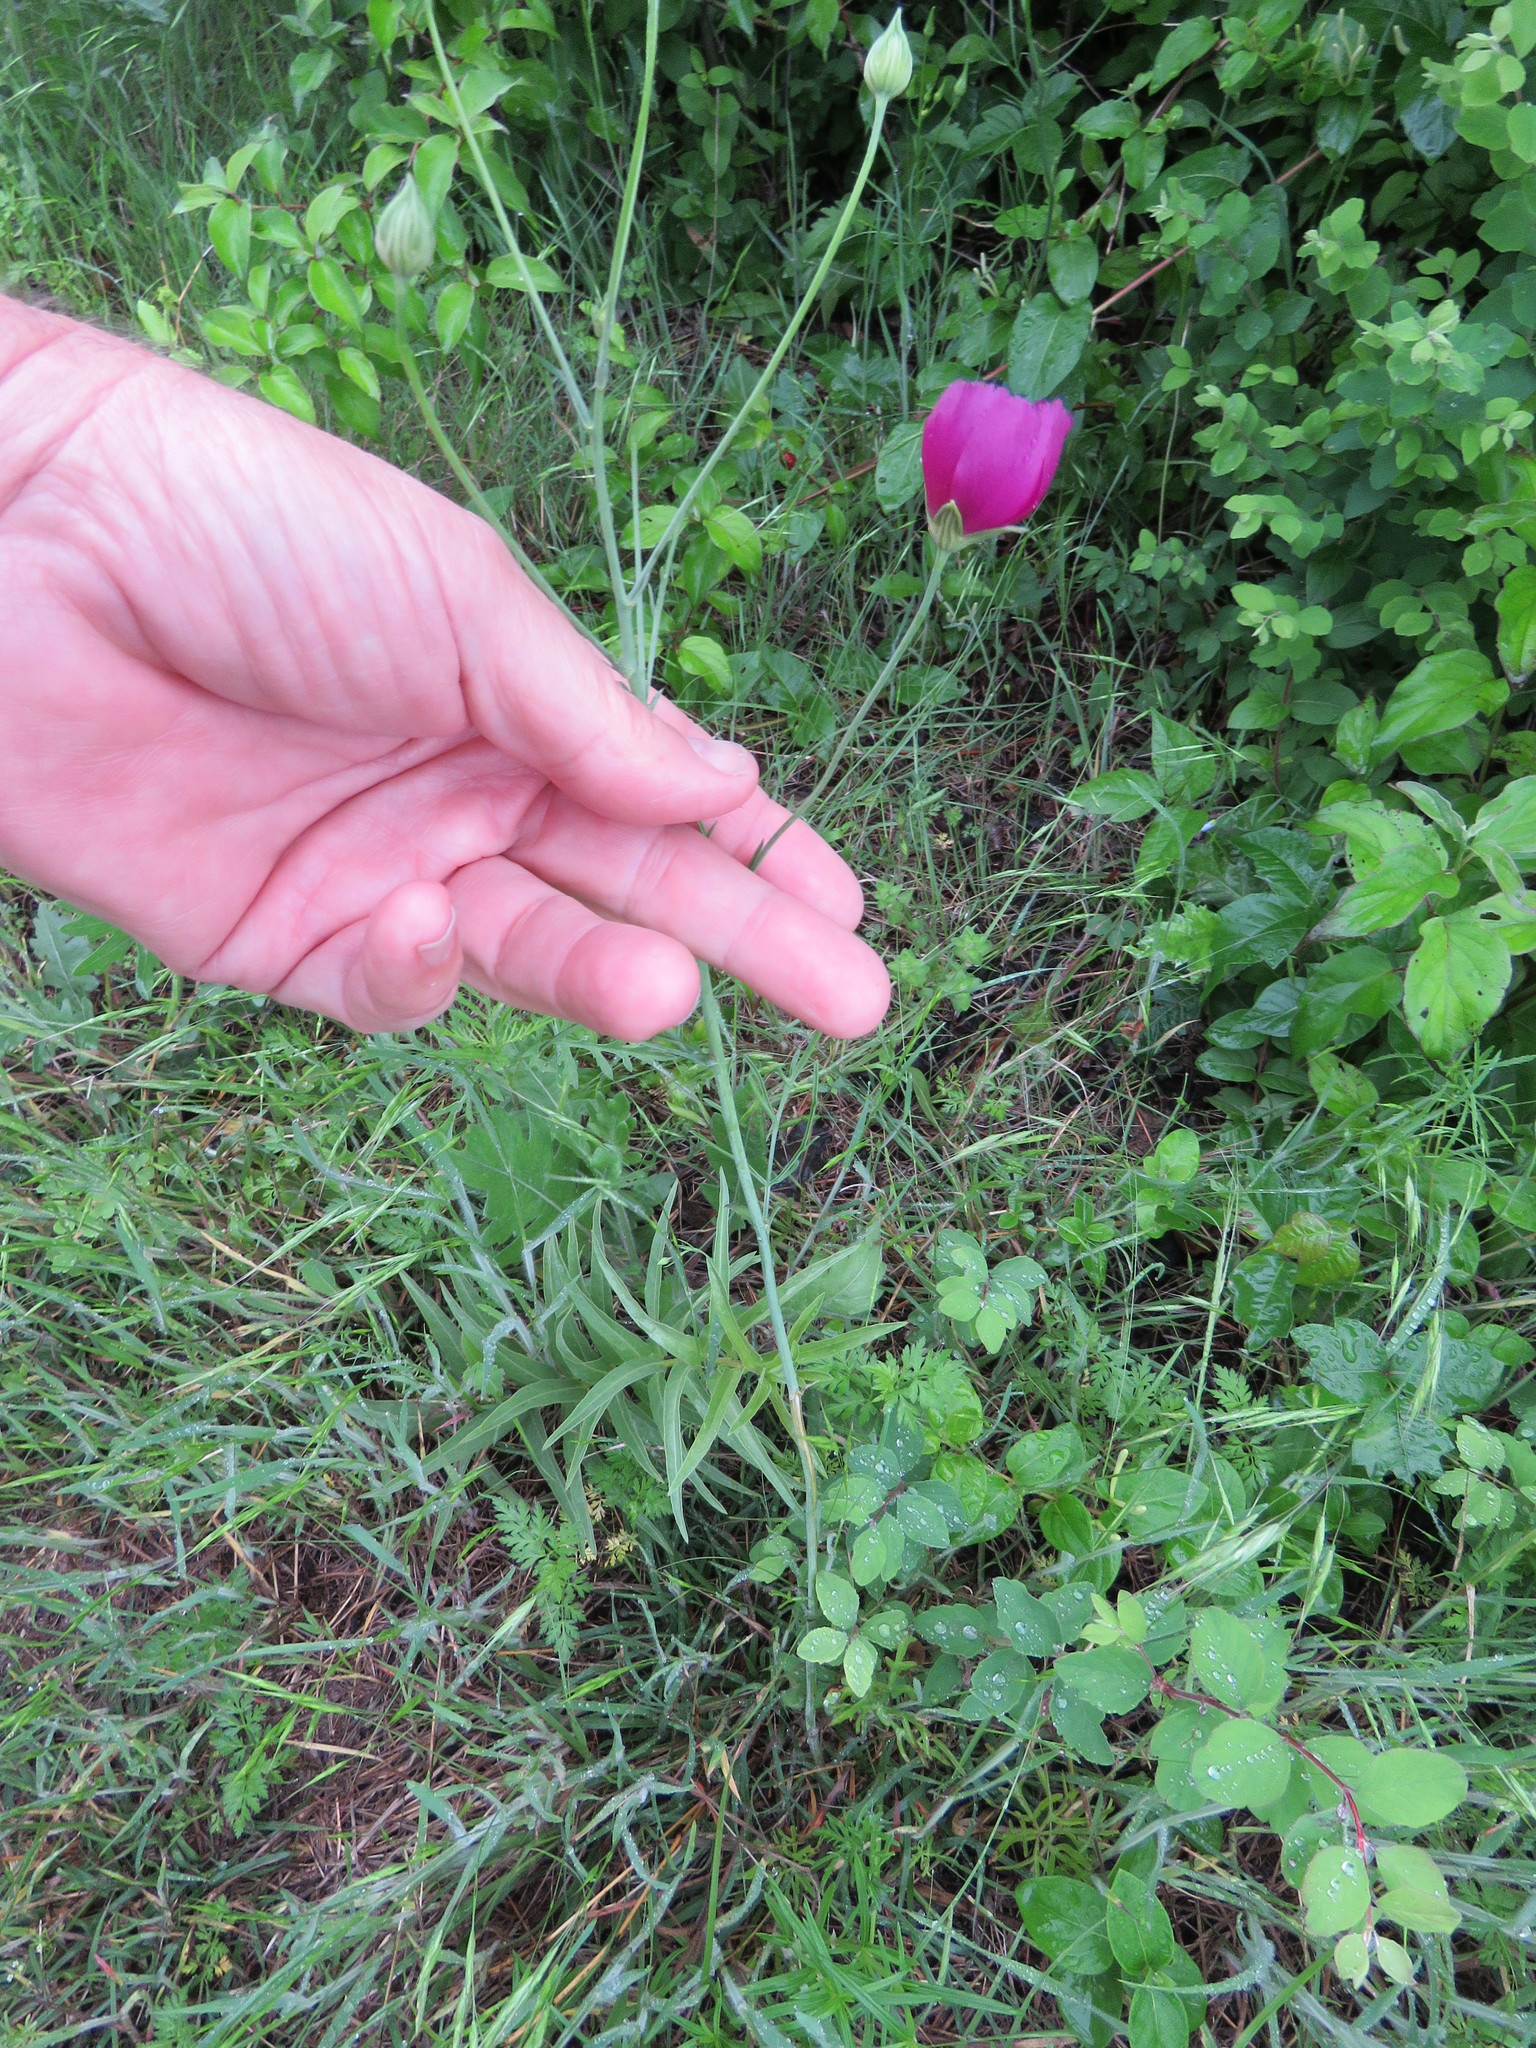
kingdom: Plantae
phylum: Tracheophyta
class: Magnoliopsida
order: Malvales
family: Malvaceae
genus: Callirhoe
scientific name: Callirhoe pedata
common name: Finger poppy-mallow
